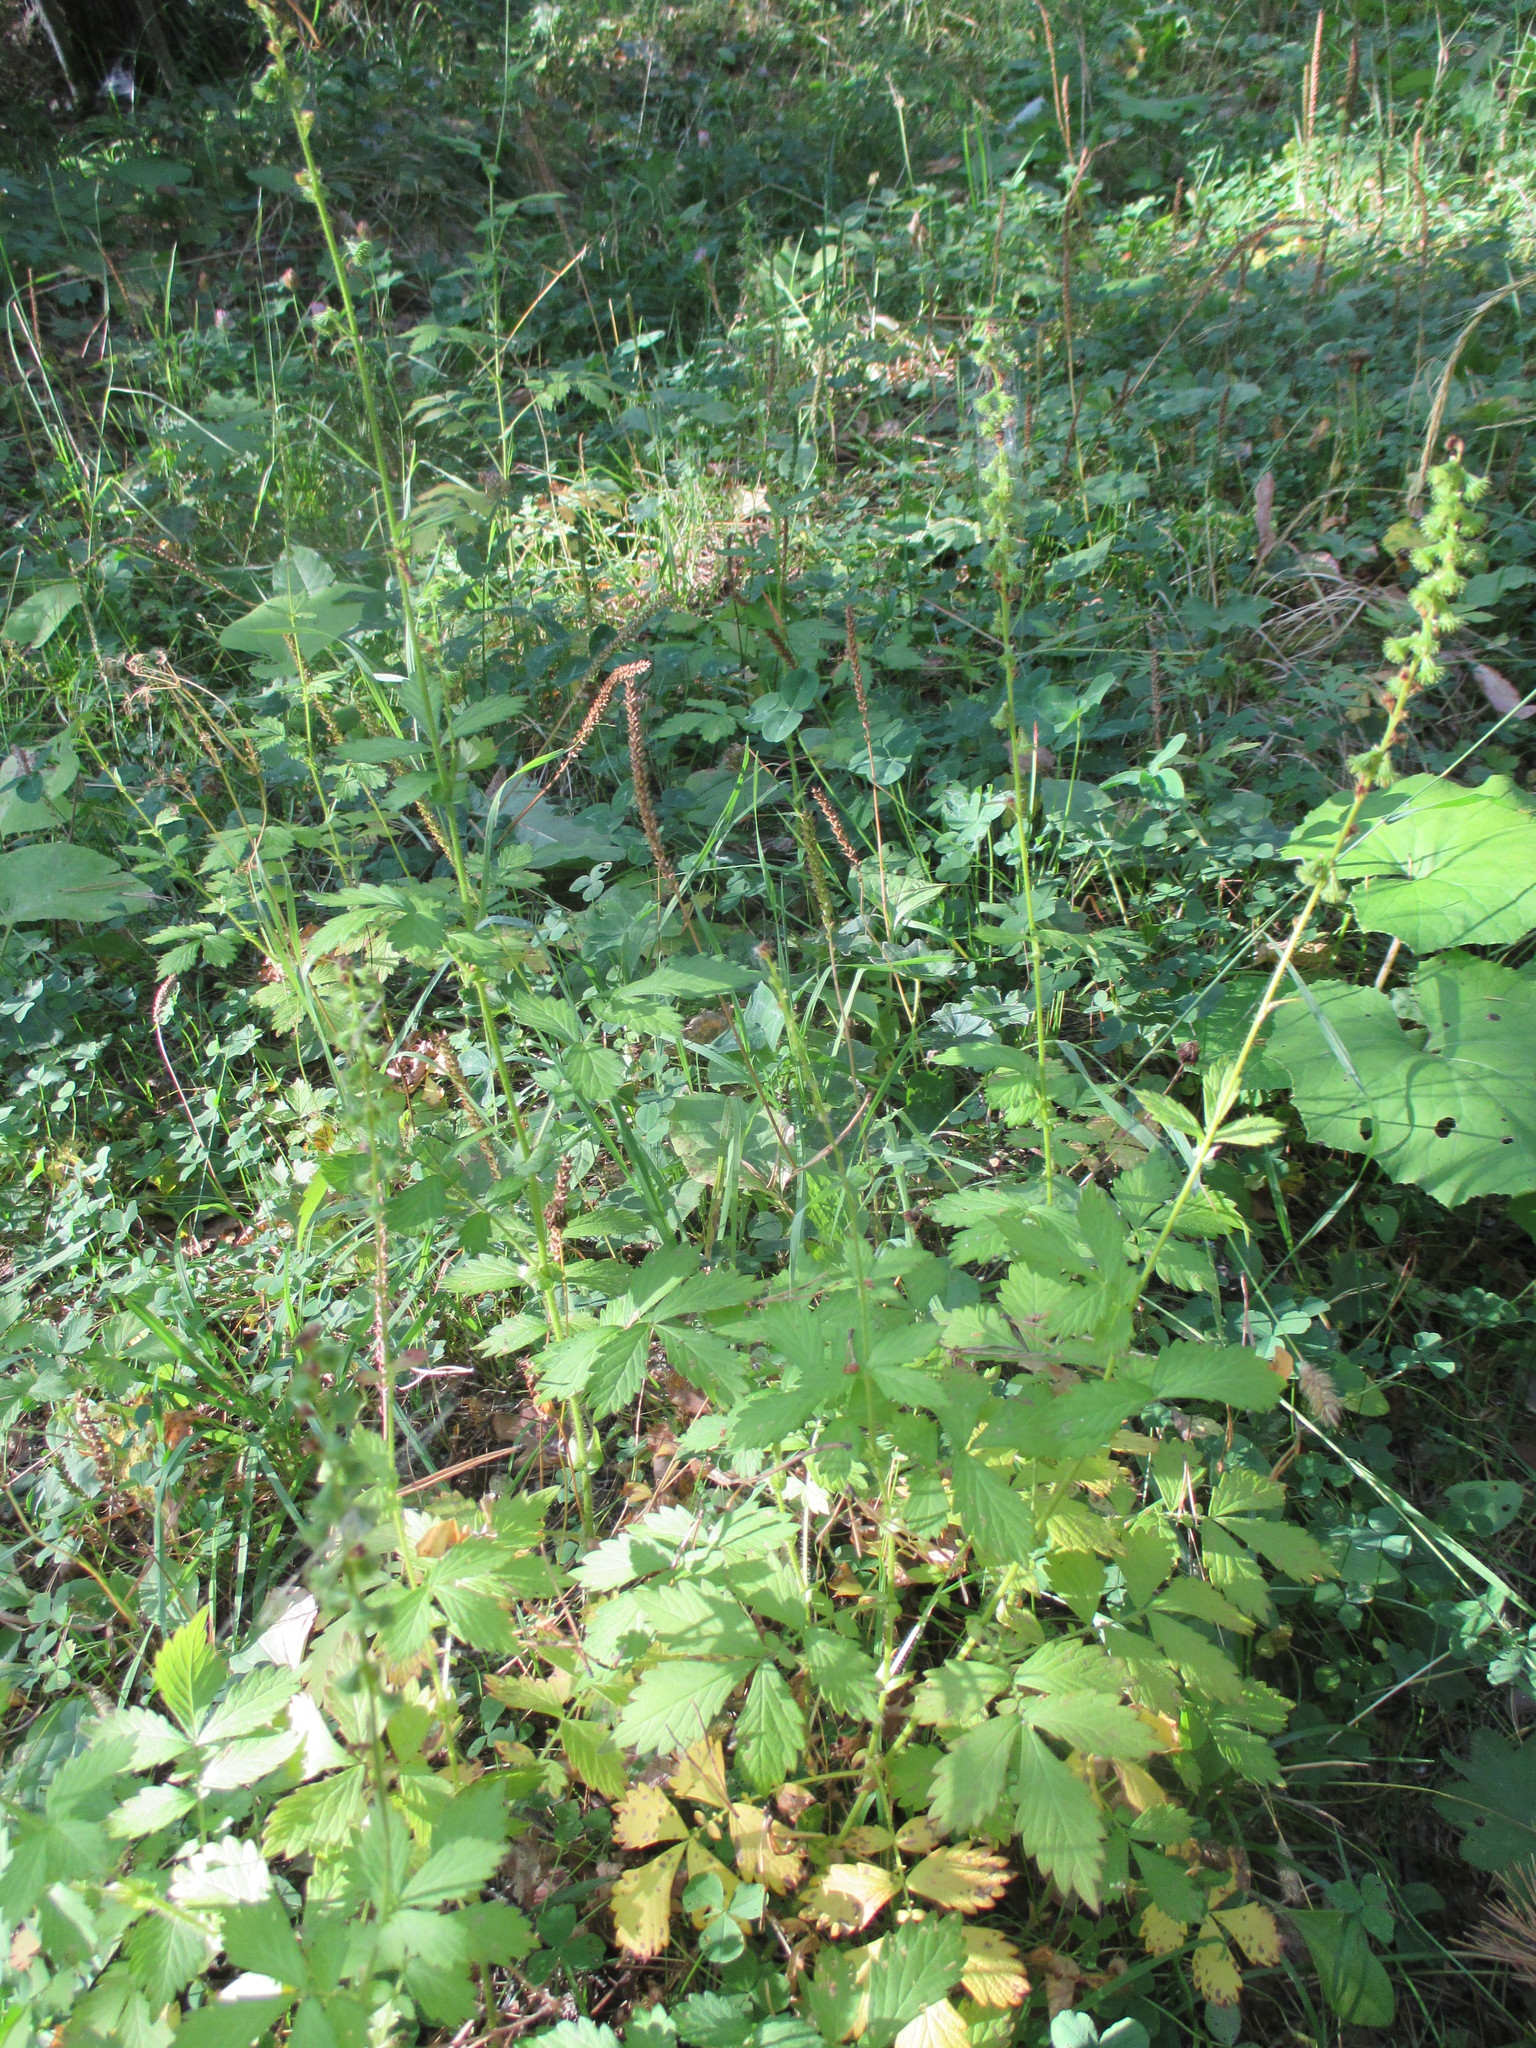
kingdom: Plantae
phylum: Tracheophyta
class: Magnoliopsida
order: Rosales
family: Rosaceae
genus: Agrimonia
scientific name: Agrimonia pilosa
